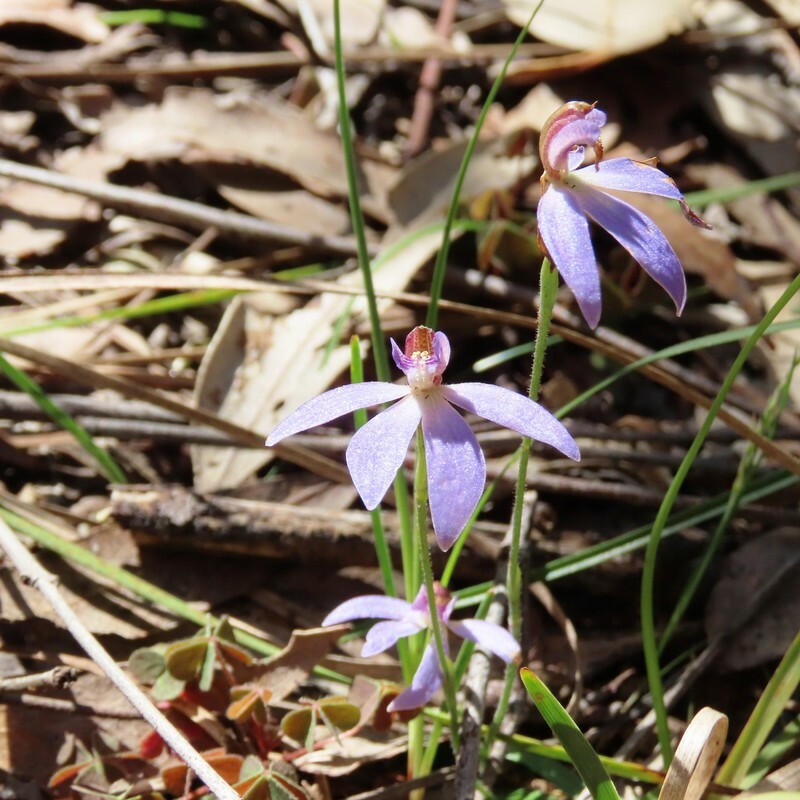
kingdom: Plantae
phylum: Tracheophyta
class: Liliopsida
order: Asparagales
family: Orchidaceae
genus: Caladenia
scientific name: Caladenia caerulea
